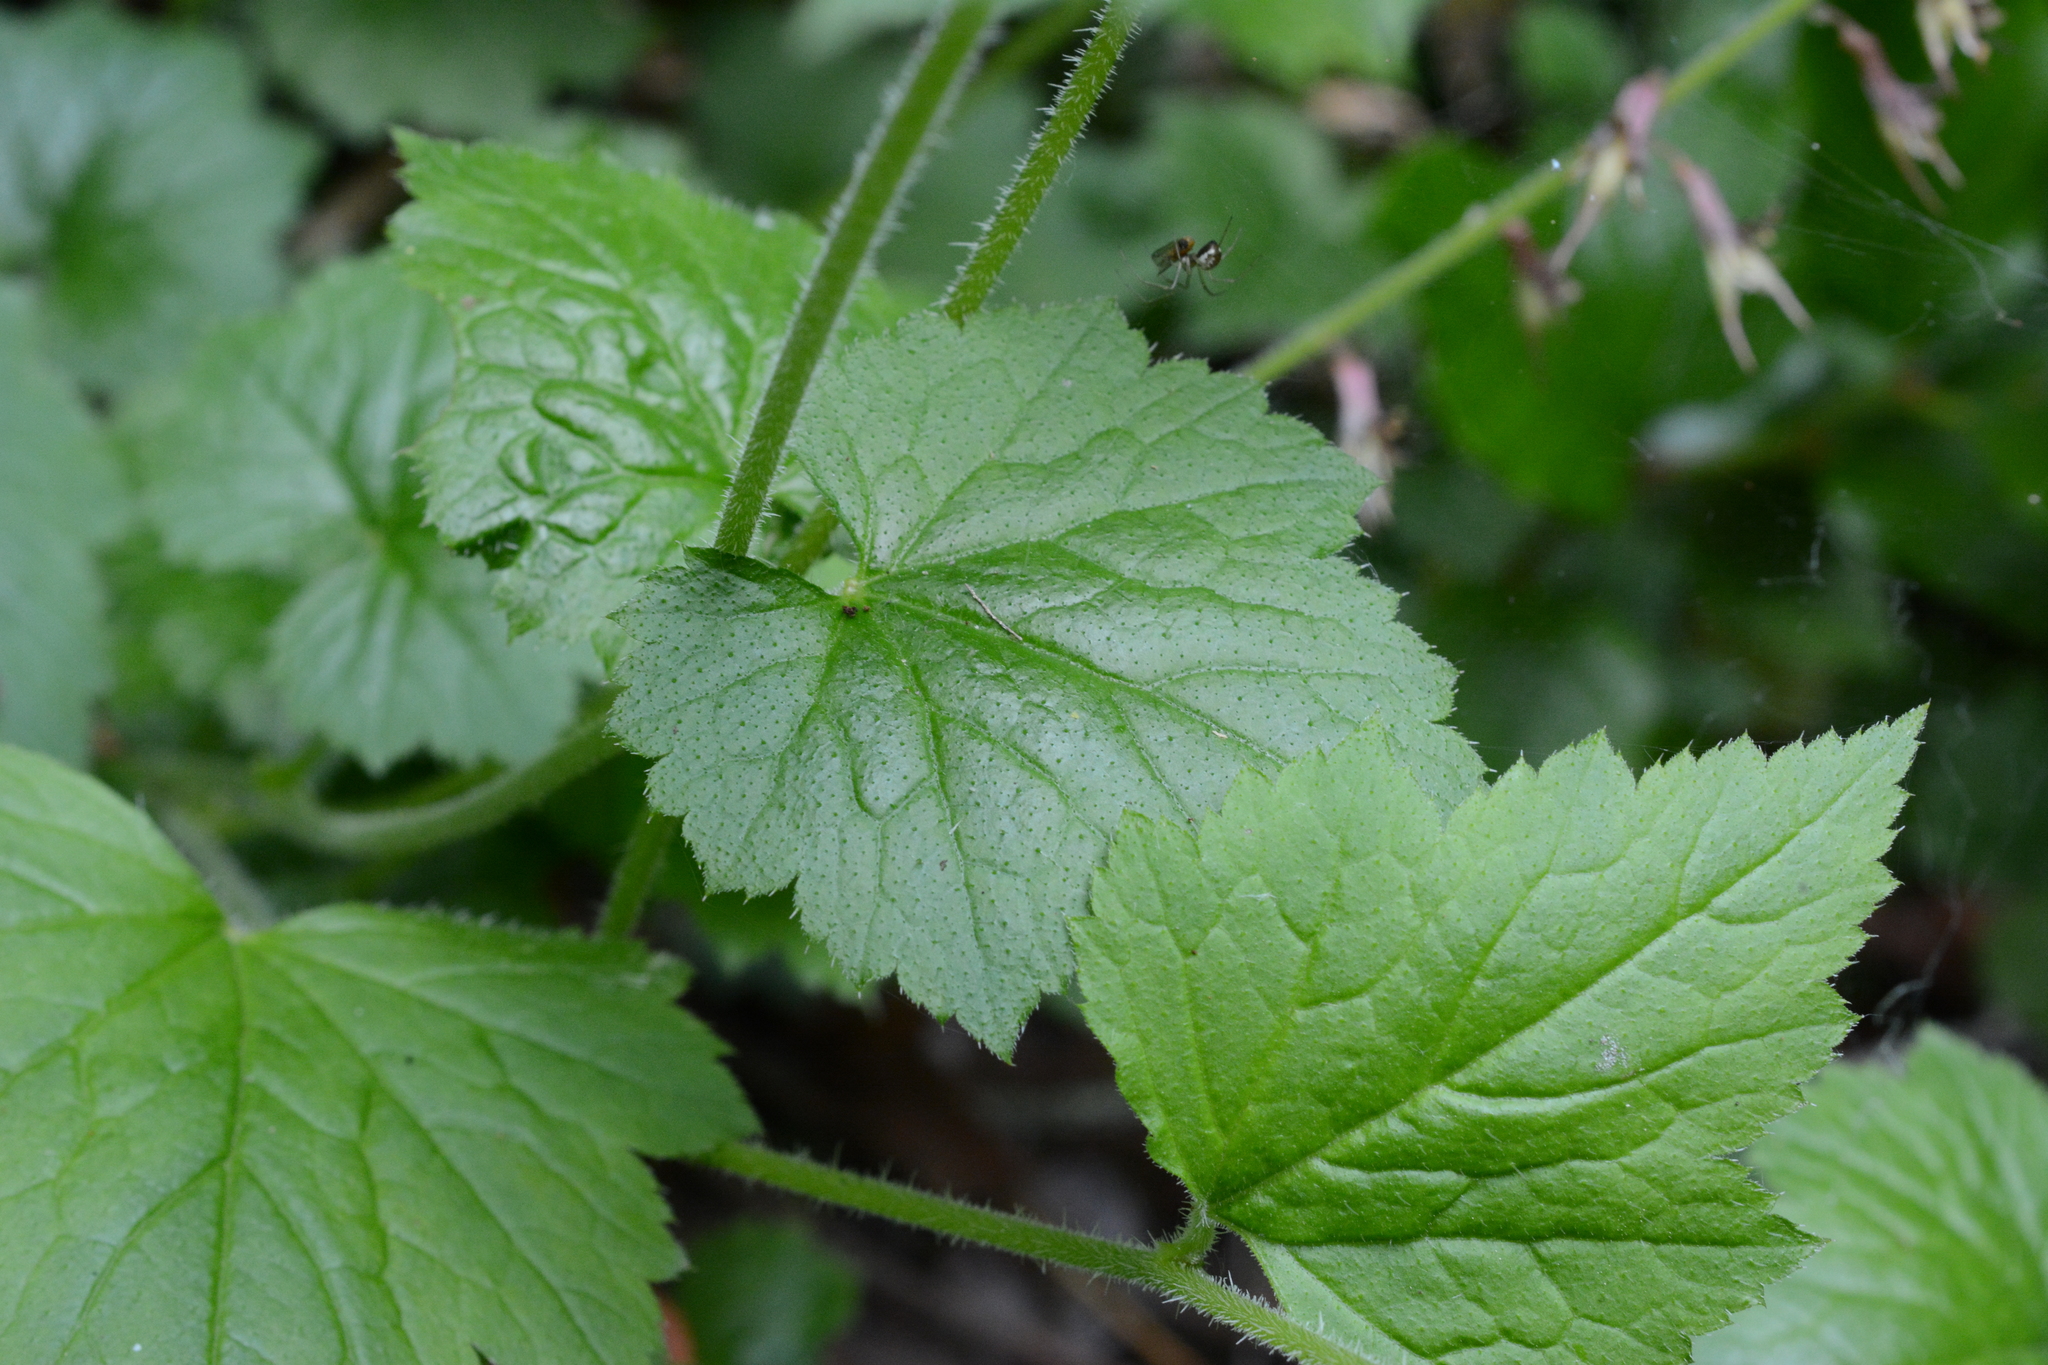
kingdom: Plantae
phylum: Tracheophyta
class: Magnoliopsida
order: Saxifragales
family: Saxifragaceae
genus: Tolmiea
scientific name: Tolmiea menziesii
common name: Pick-a-back-plant
